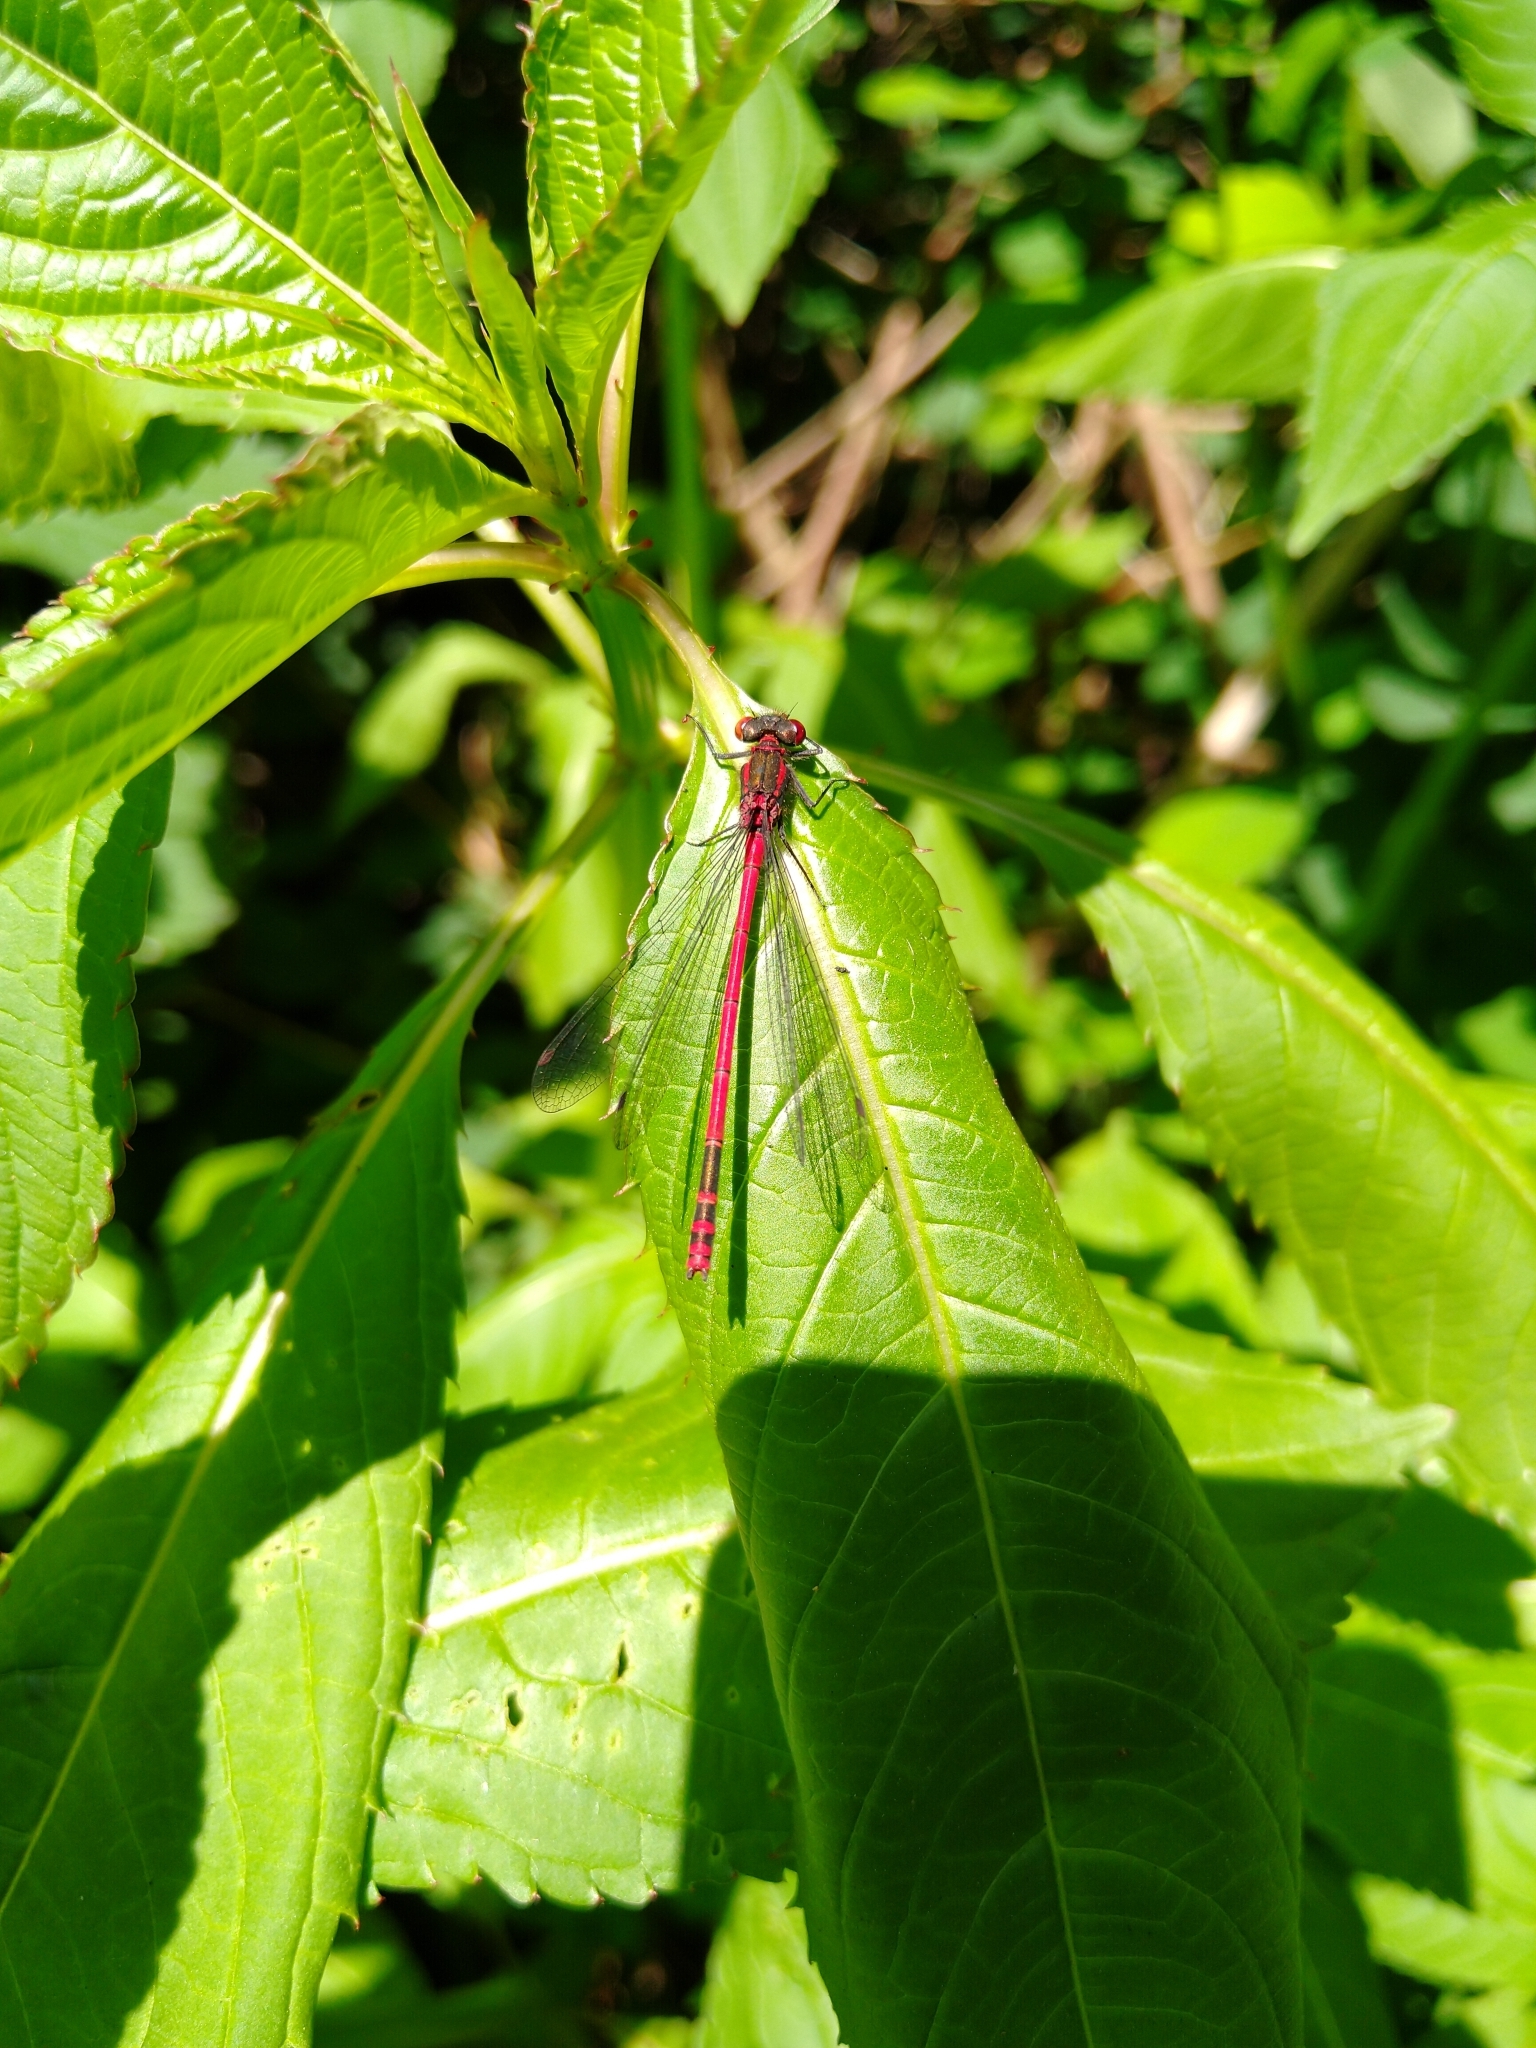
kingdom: Animalia
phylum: Arthropoda
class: Insecta
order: Odonata
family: Coenagrionidae
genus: Pyrrhosoma
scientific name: Pyrrhosoma nymphula
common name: Large red damsel
